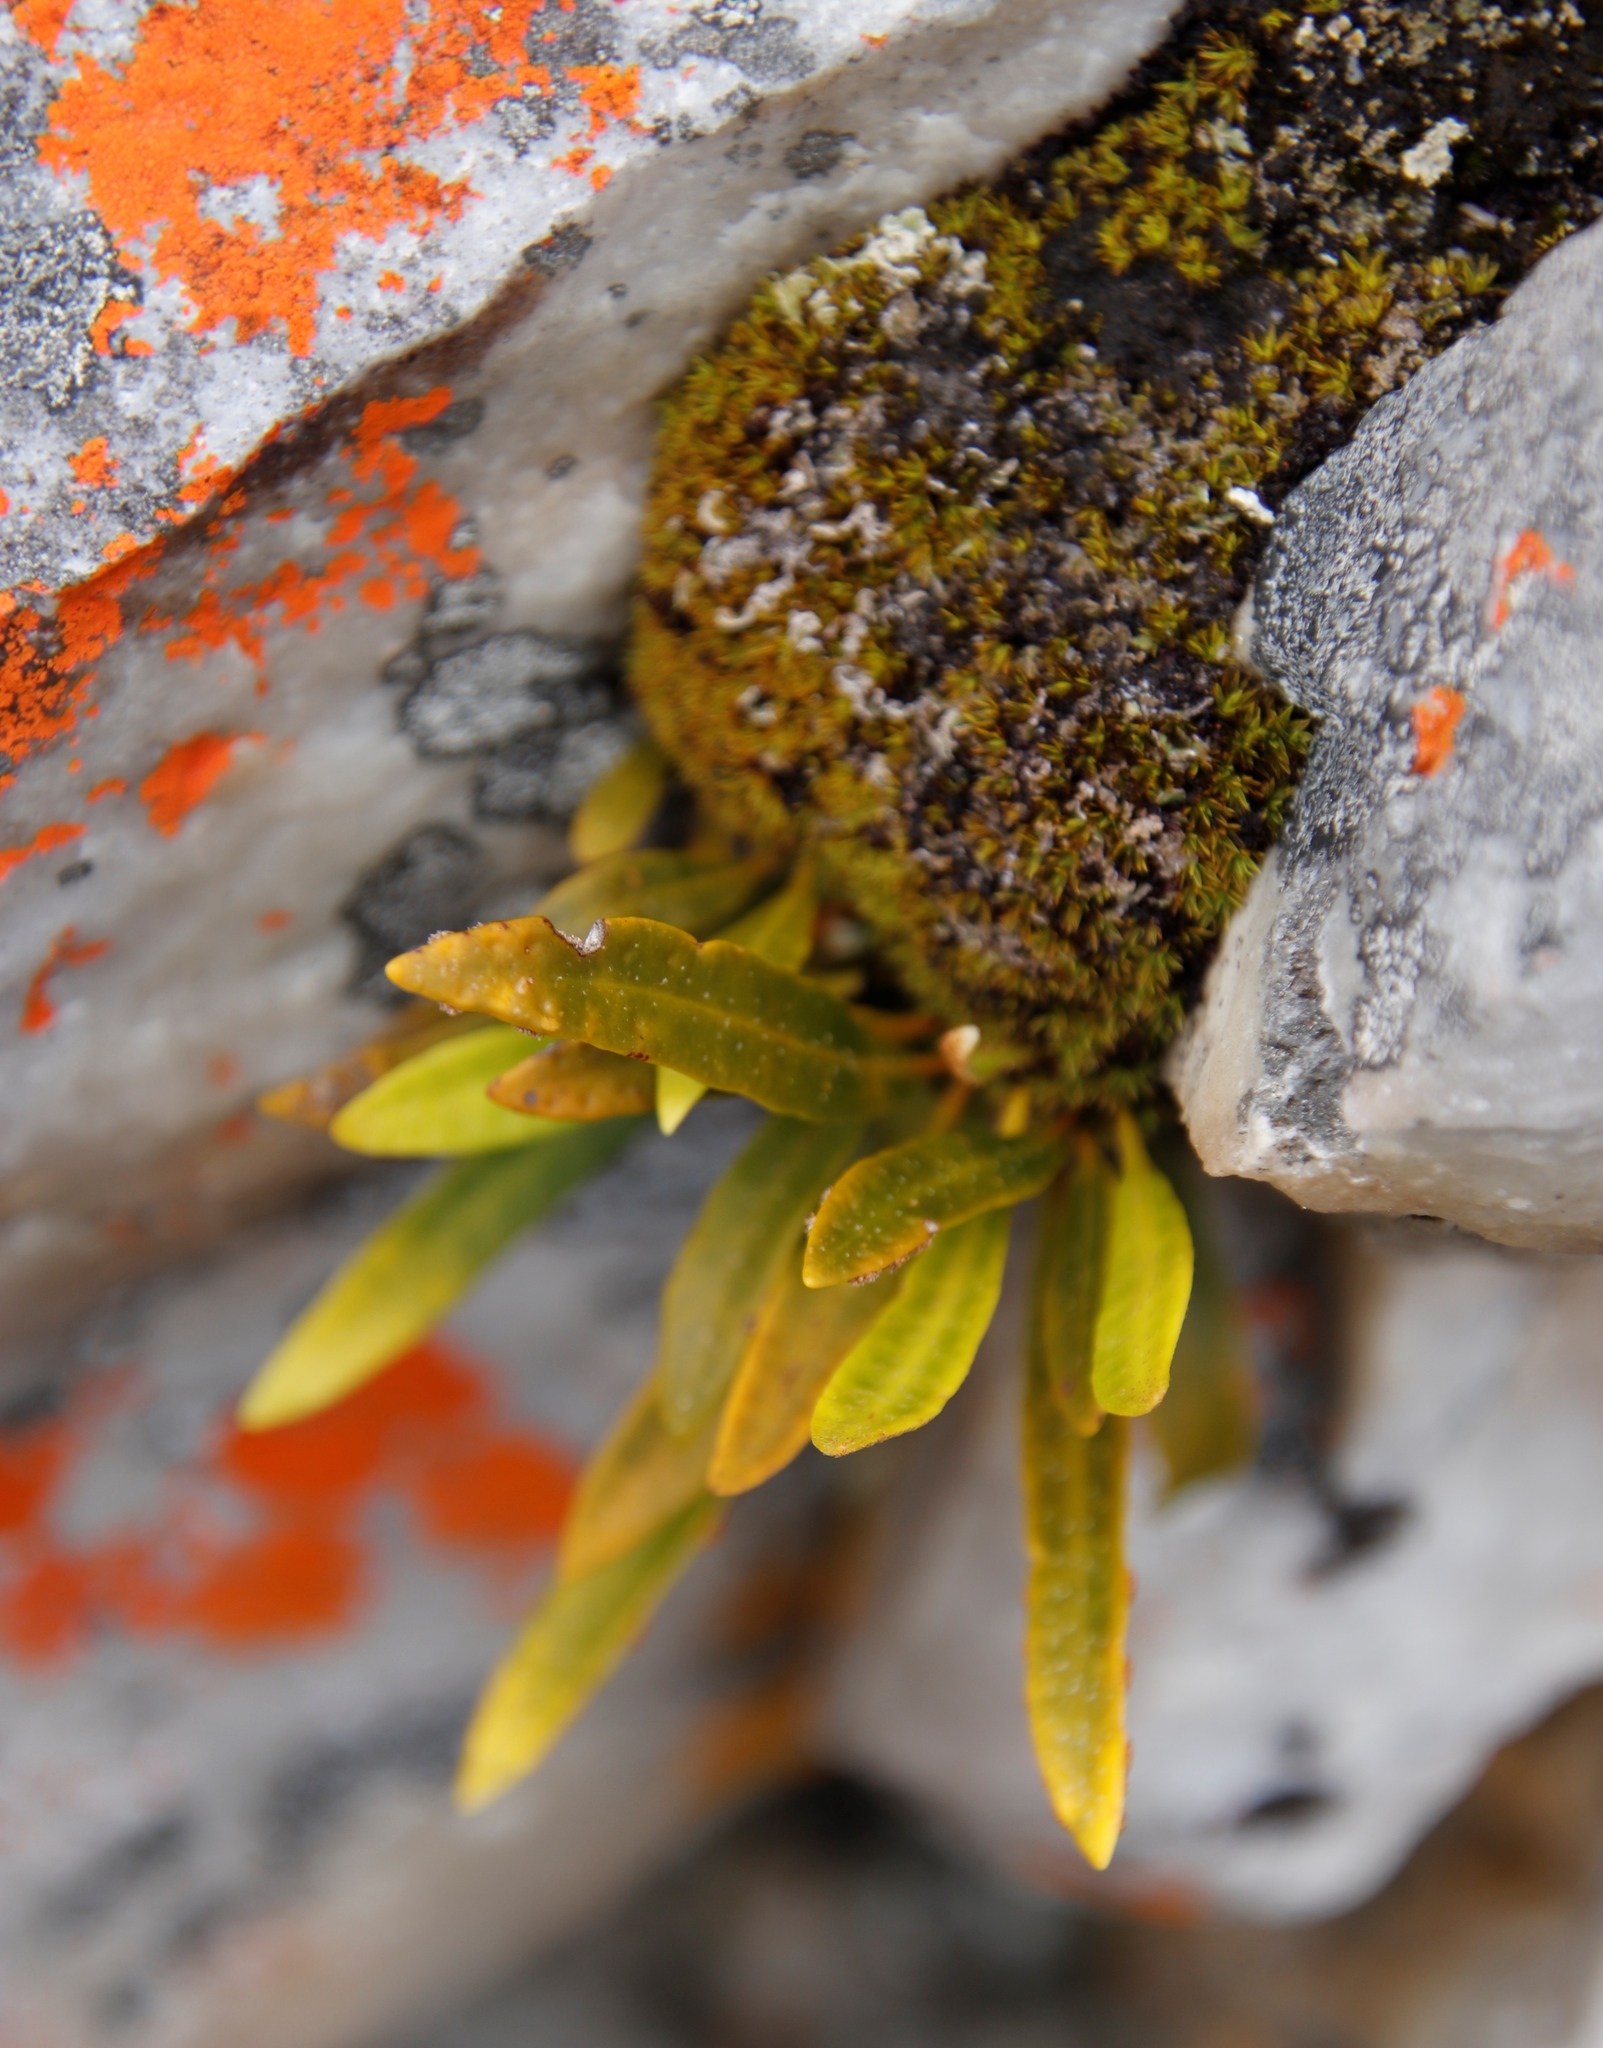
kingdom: Plantae
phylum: Tracheophyta
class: Polypodiopsida
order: Polypodiales
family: Polypodiaceae
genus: Pleopeltis
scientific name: Pleopeltis macrocarpa
